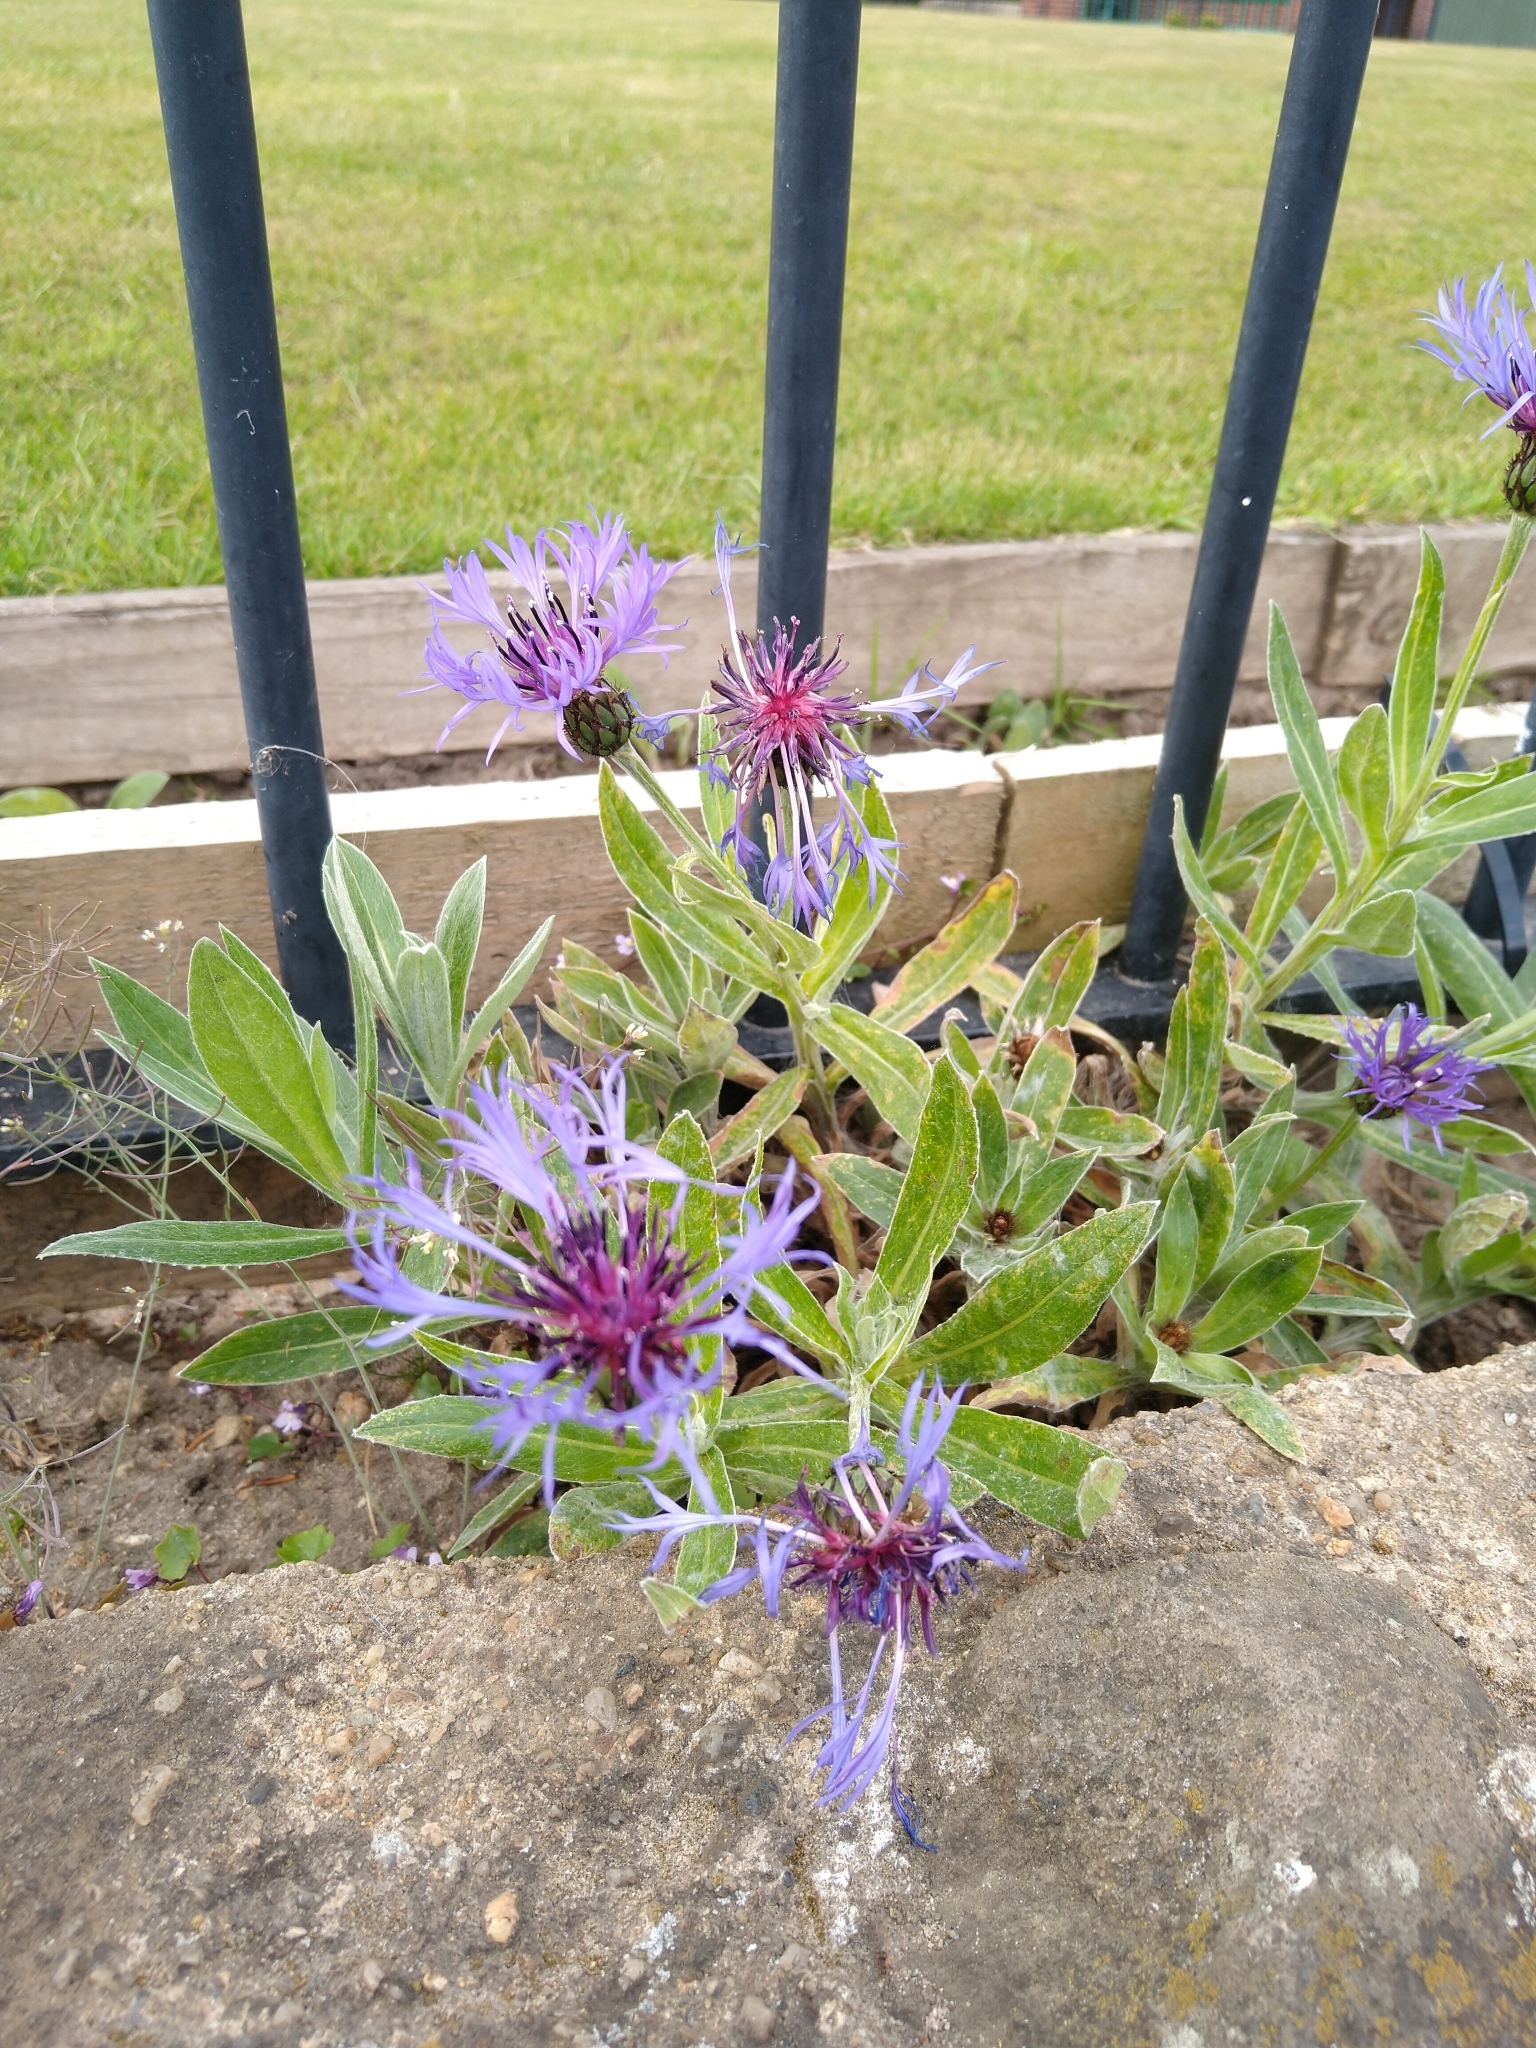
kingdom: Plantae
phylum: Tracheophyta
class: Magnoliopsida
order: Asterales
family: Asteraceae
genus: Centaurea
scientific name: Centaurea montana
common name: Perennial cornflower
